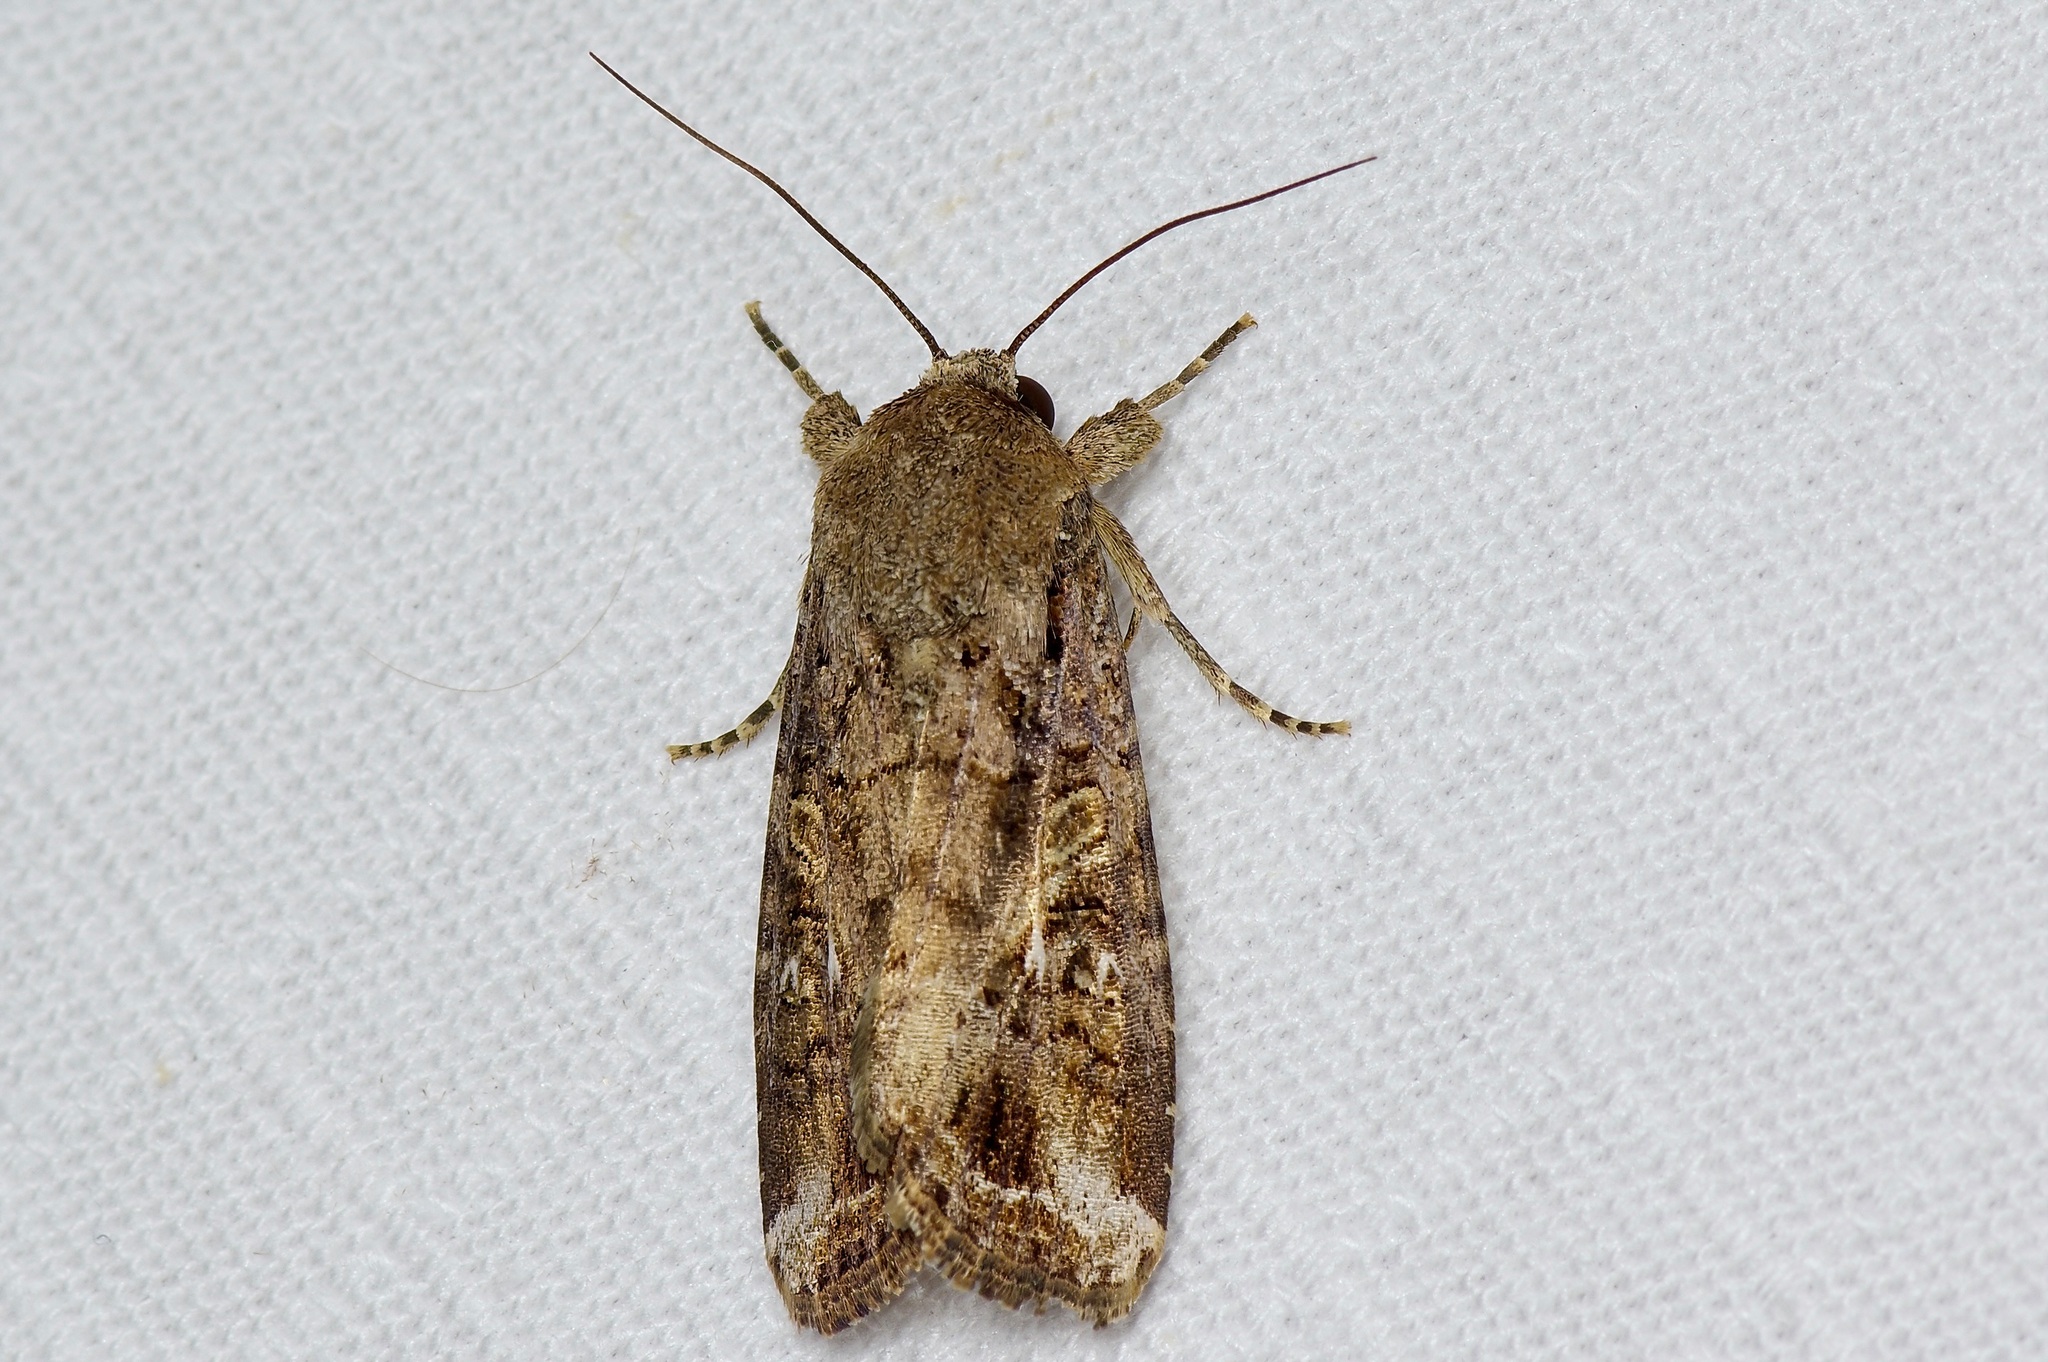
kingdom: Animalia
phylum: Arthropoda
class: Insecta
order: Lepidoptera
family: Noctuidae
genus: Spodoptera
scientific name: Spodoptera frugiperda
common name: Fall armyworm
